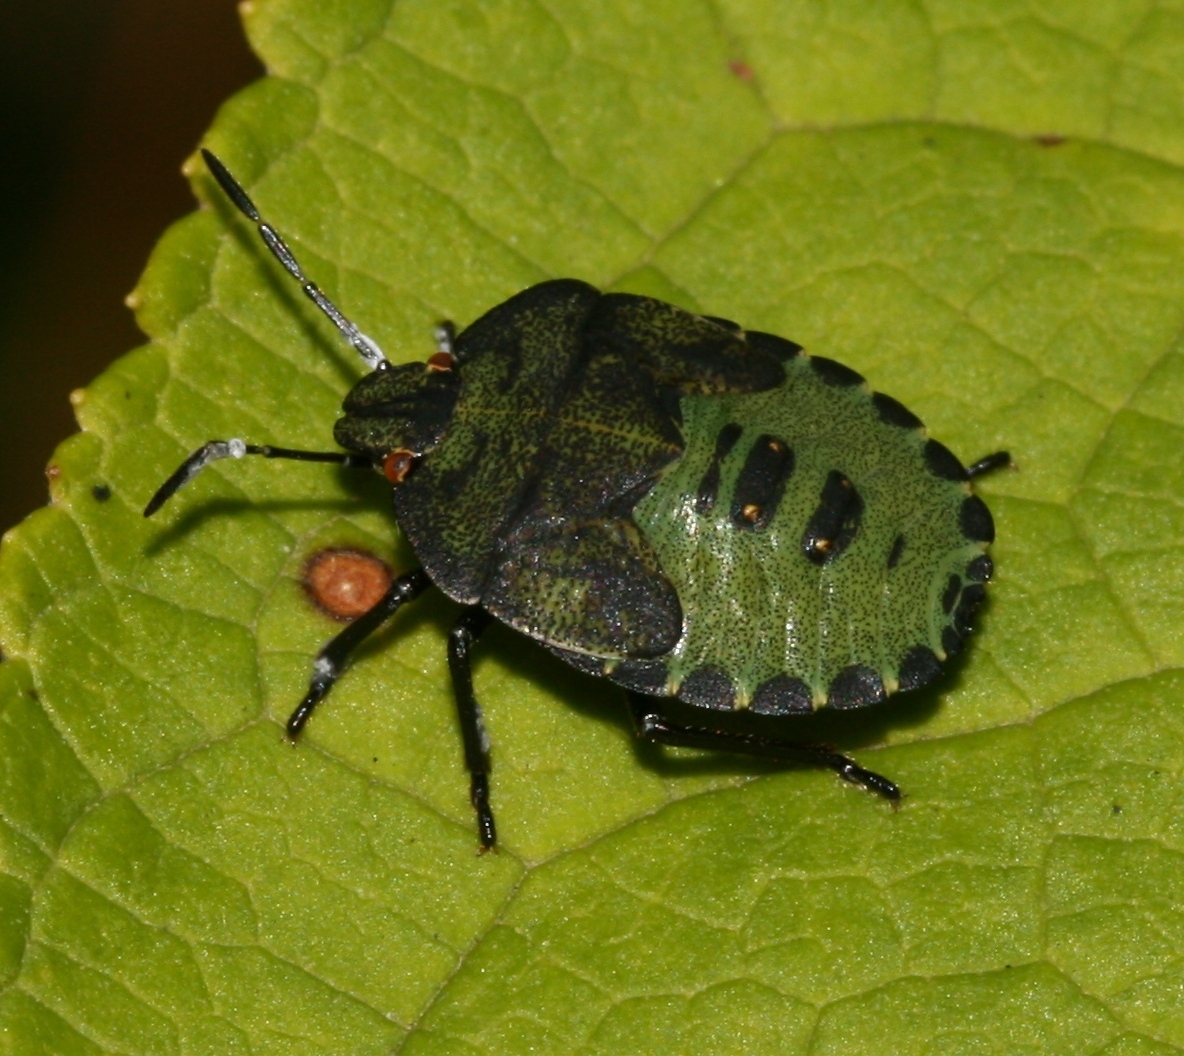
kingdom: Animalia
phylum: Arthropoda
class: Insecta
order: Hemiptera
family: Pentatomidae
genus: Palomena
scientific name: Palomena prasina
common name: Green shieldbug
